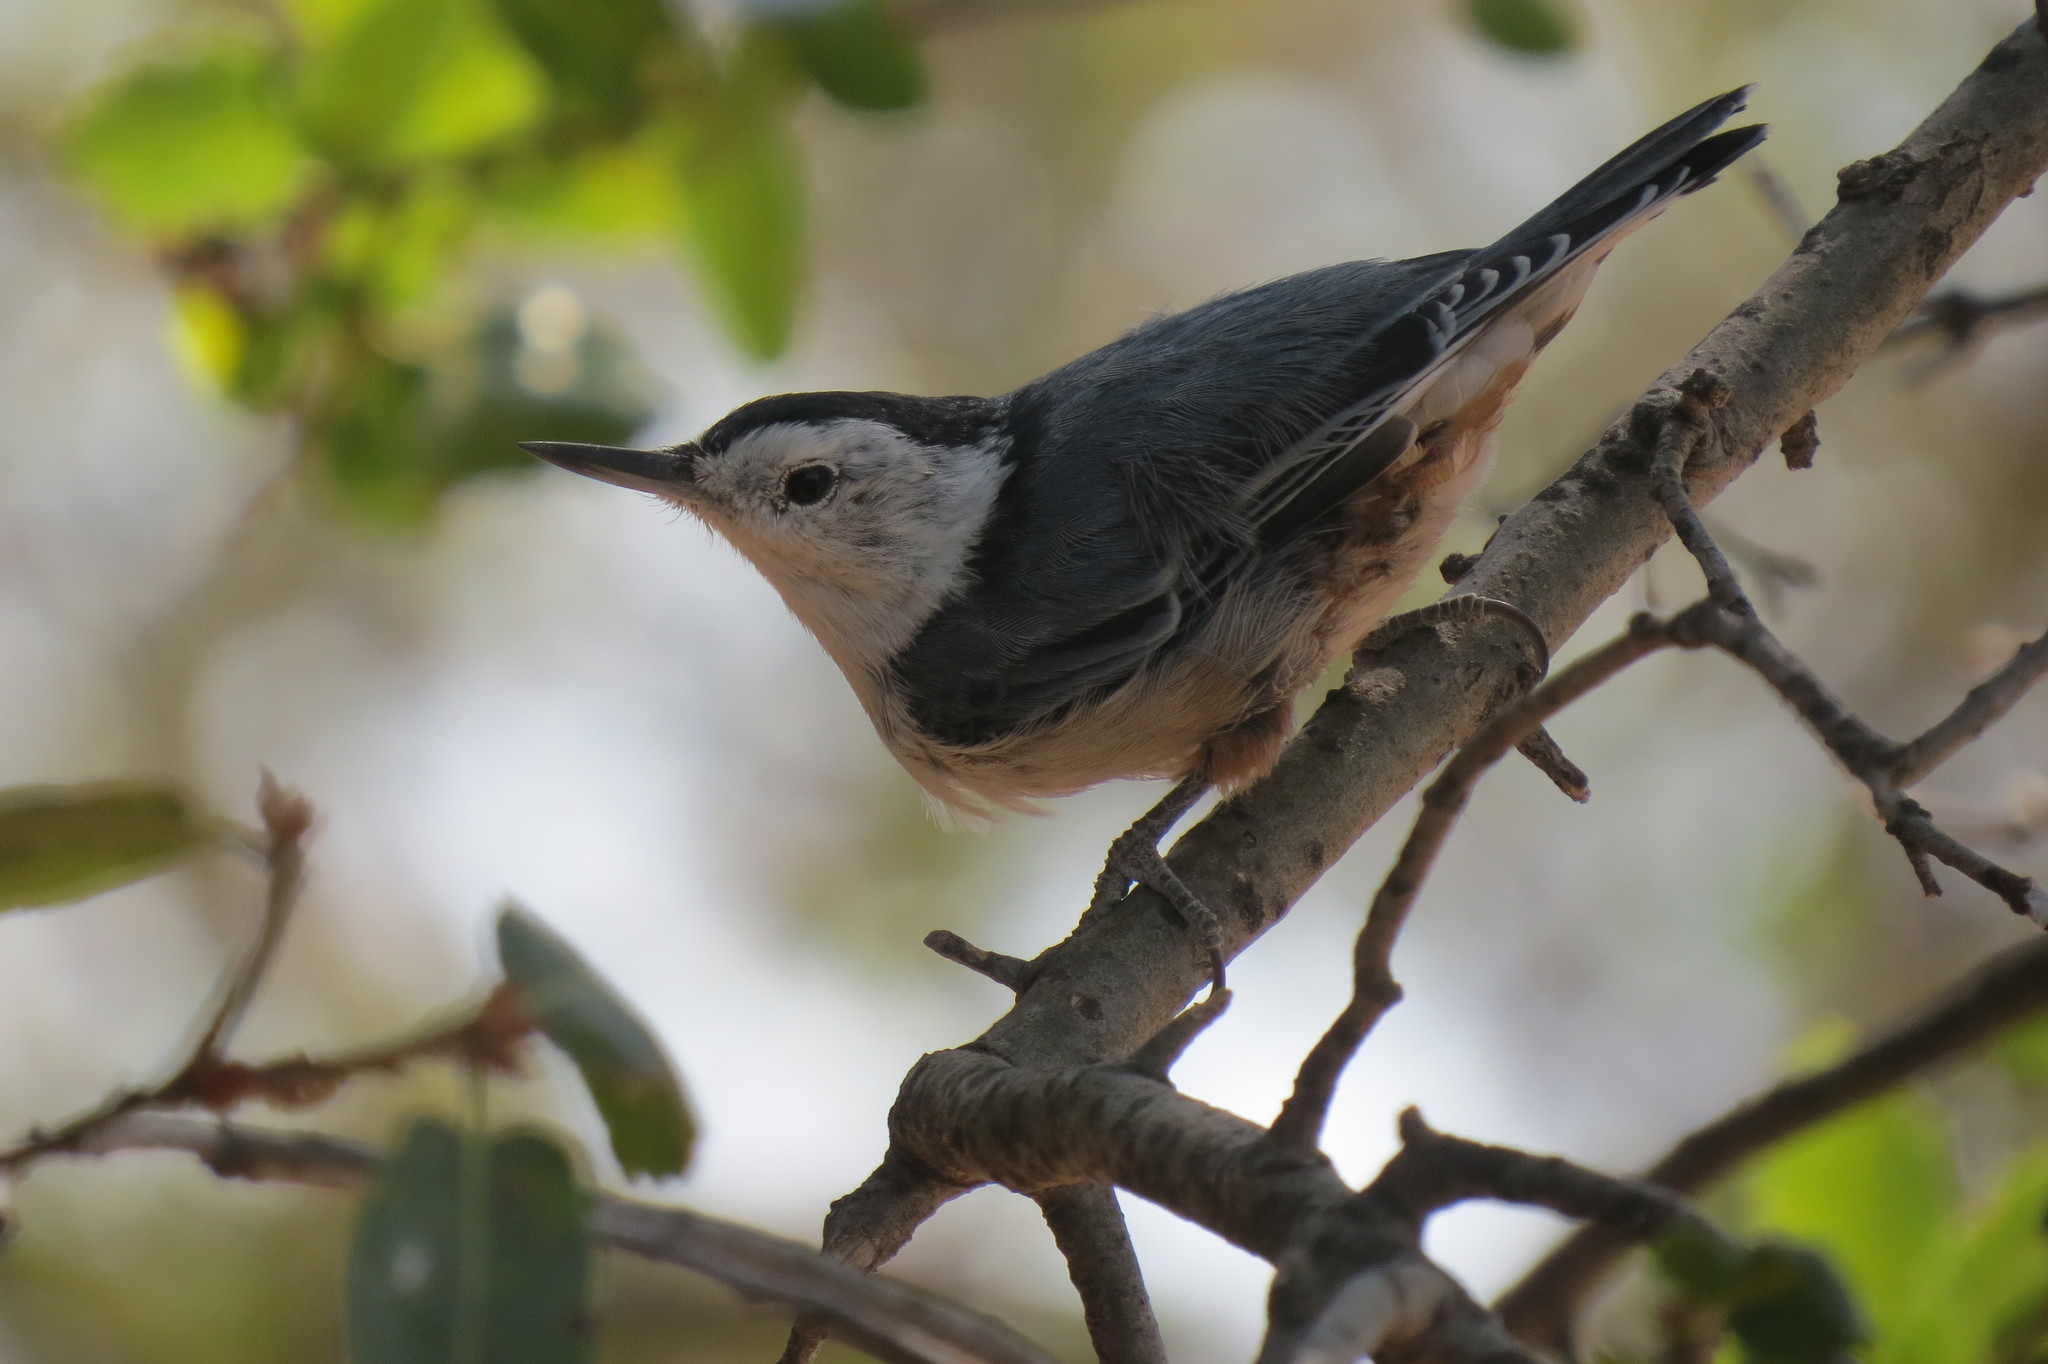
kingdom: Animalia
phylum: Chordata
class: Aves
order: Passeriformes
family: Sittidae
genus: Sitta
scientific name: Sitta carolinensis
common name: White-breasted nuthatch
